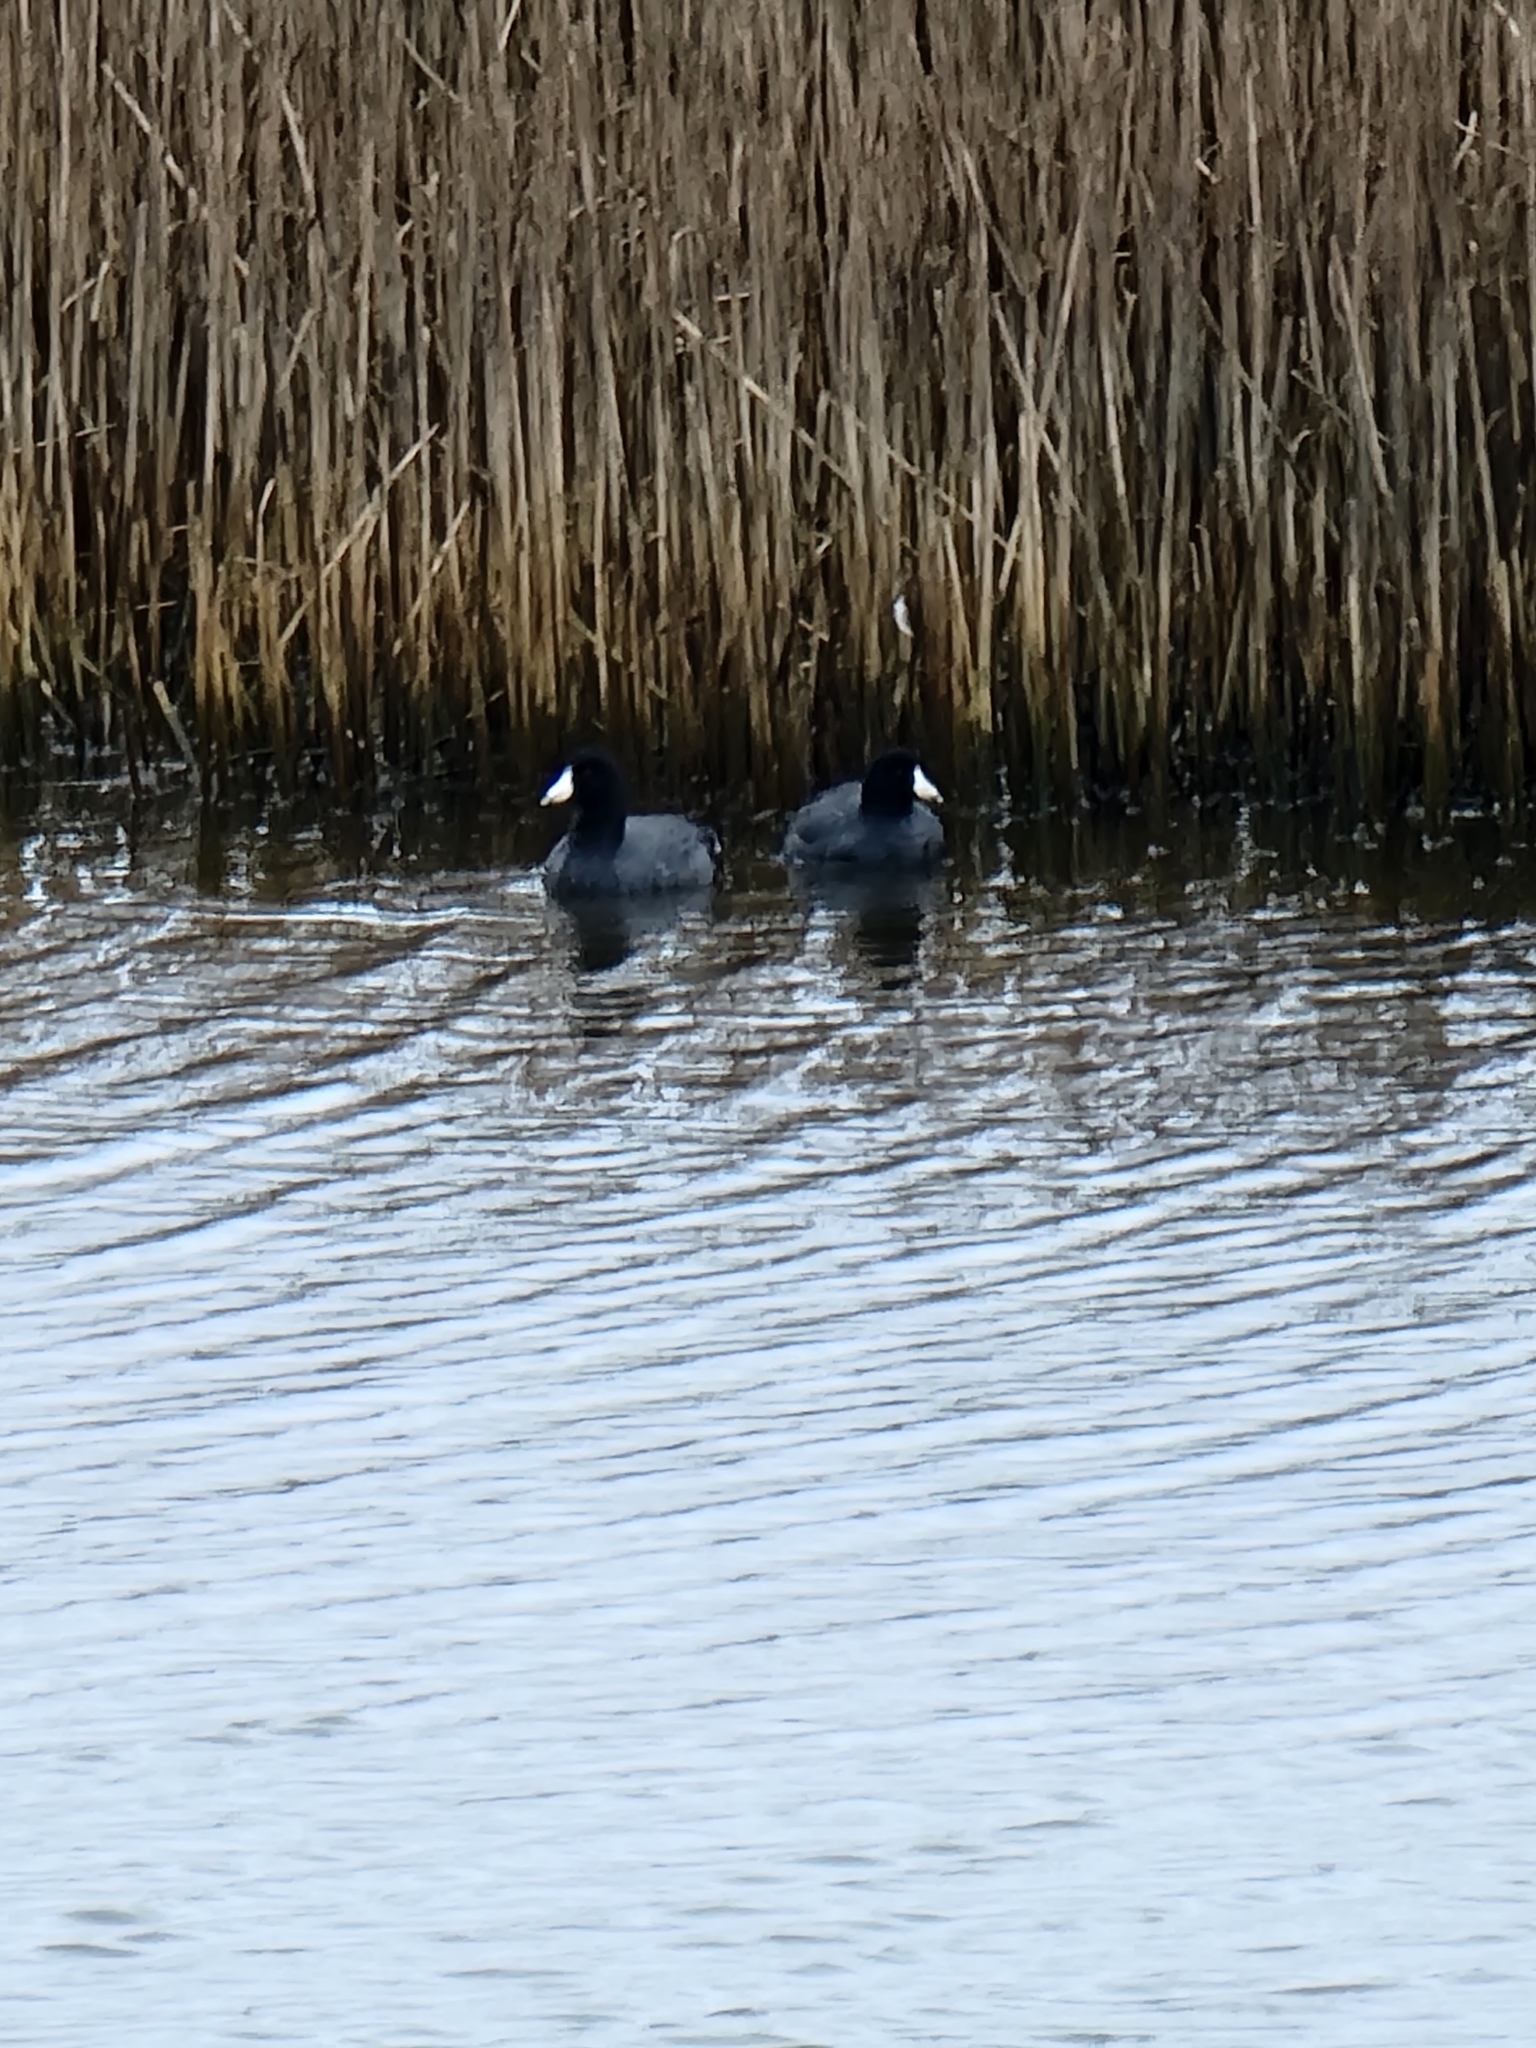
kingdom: Animalia
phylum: Chordata
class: Aves
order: Gruiformes
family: Rallidae
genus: Fulica
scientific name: Fulica americana
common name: American coot
